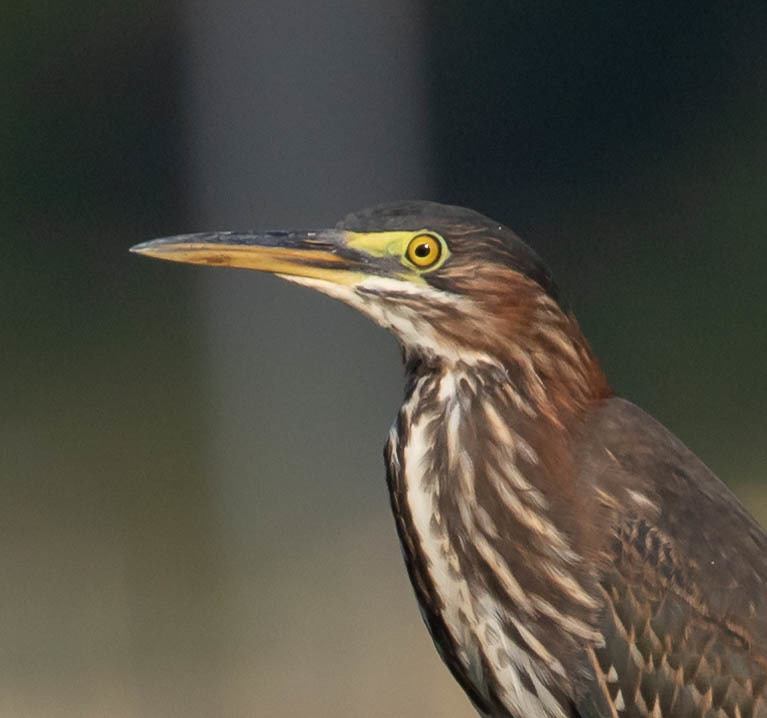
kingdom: Animalia
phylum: Chordata
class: Aves
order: Pelecaniformes
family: Ardeidae
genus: Butorides
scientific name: Butorides virescens
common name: Green heron
